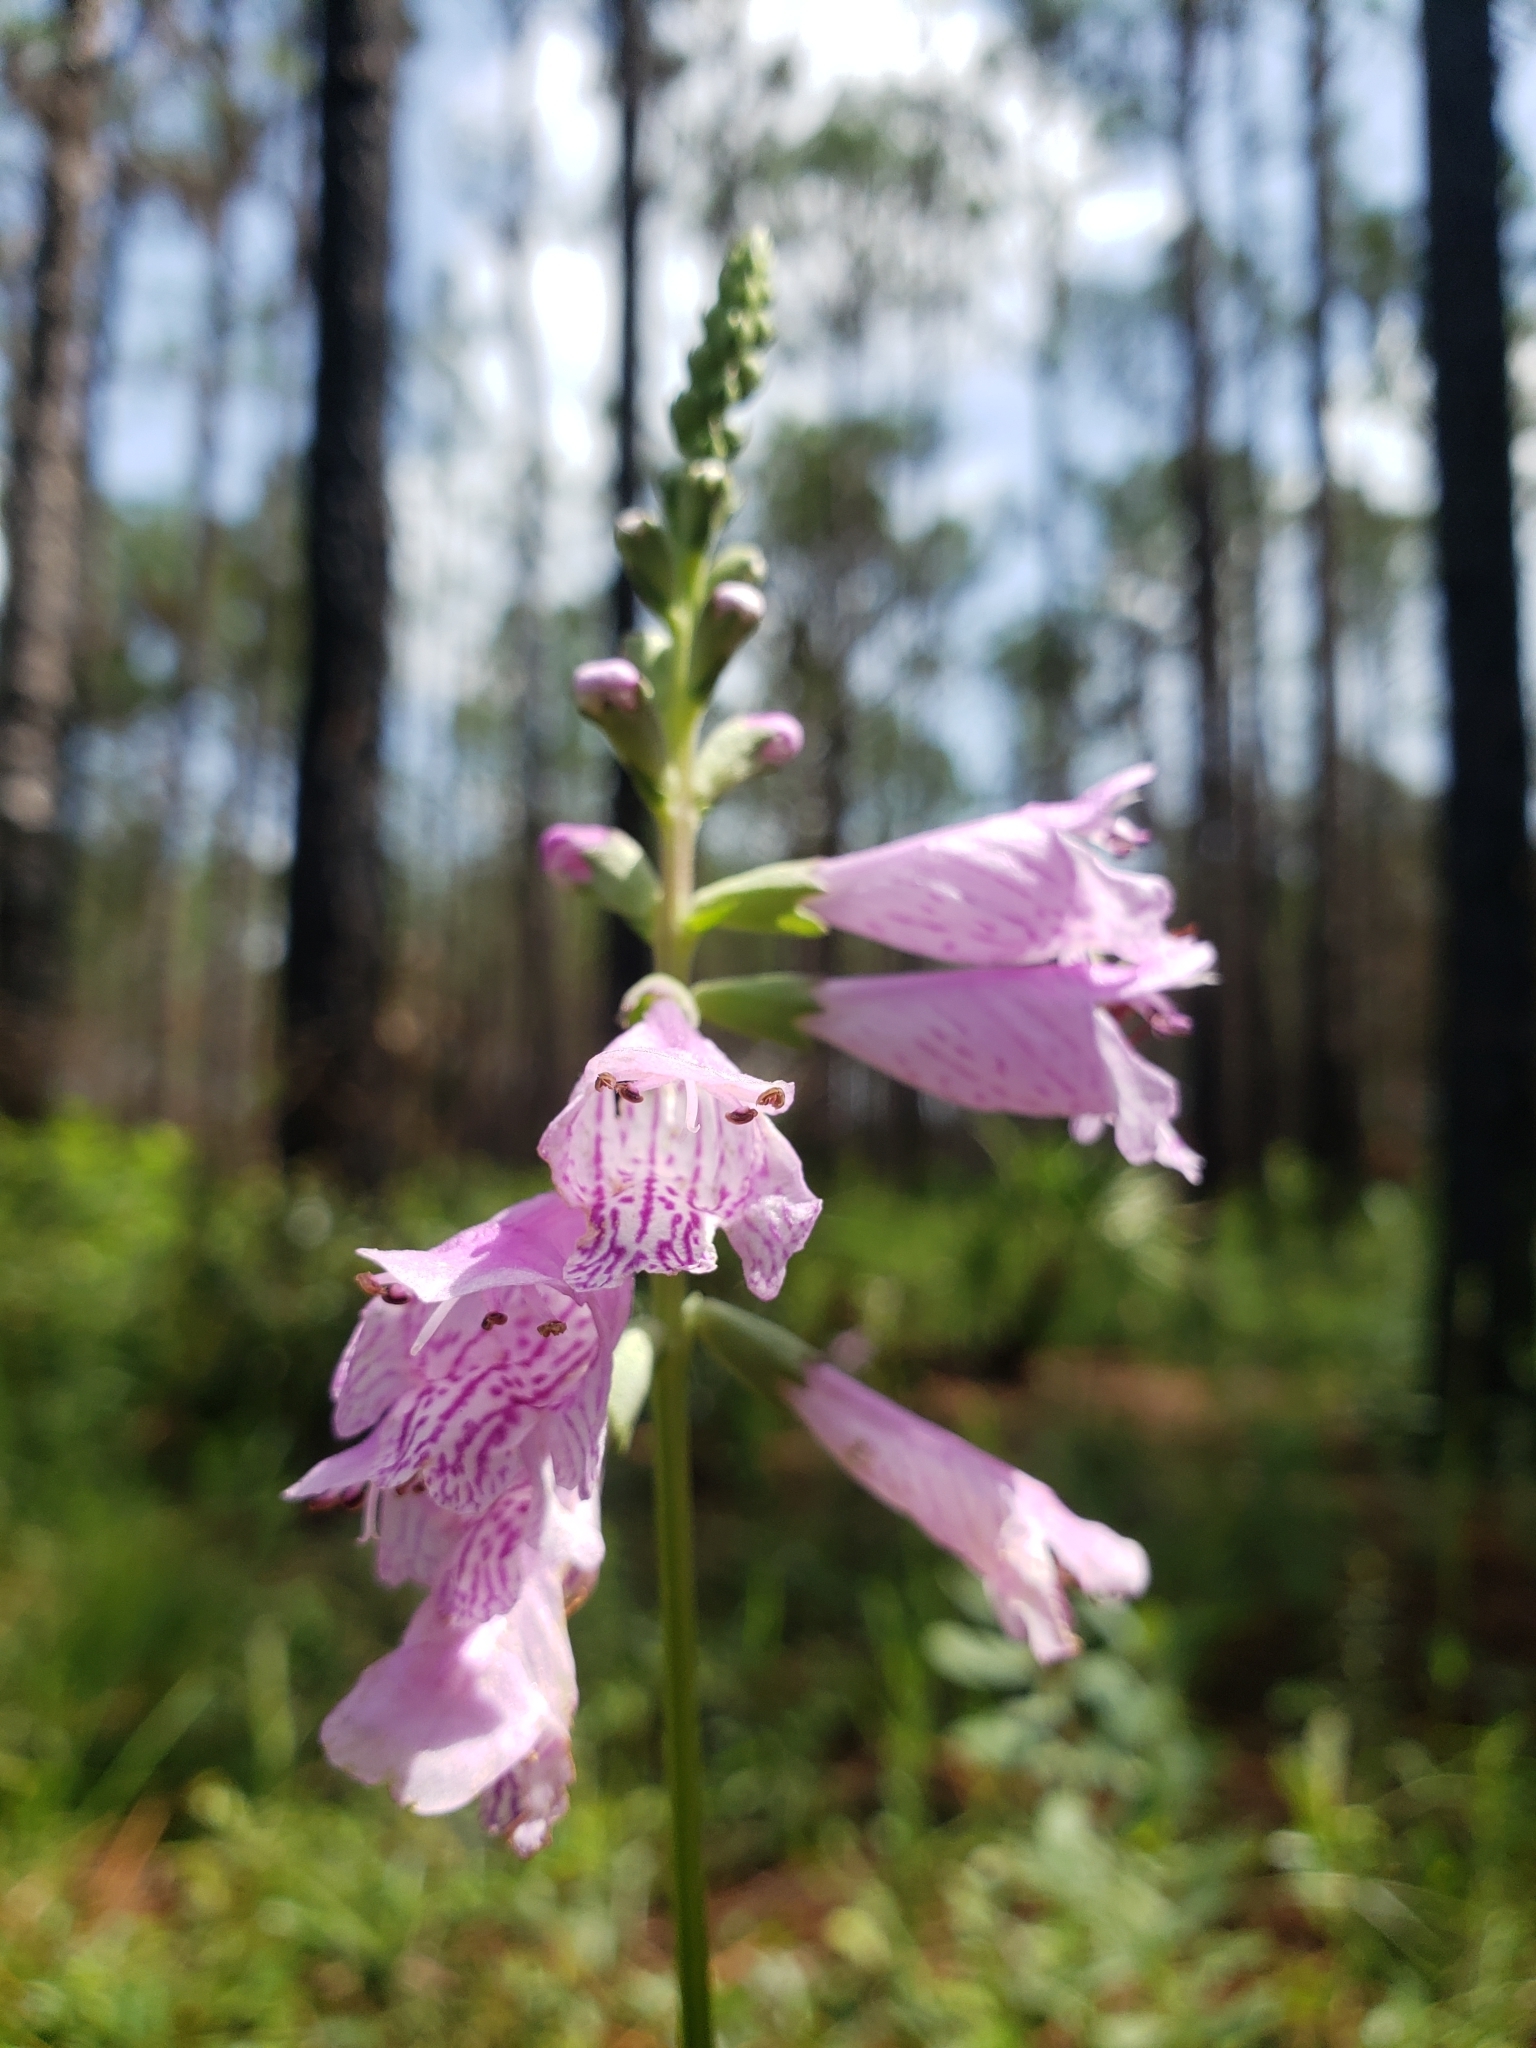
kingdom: Plantae
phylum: Tracheophyta
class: Magnoliopsida
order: Lamiales
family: Lamiaceae
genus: Physostegia
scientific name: Physostegia purpurea
